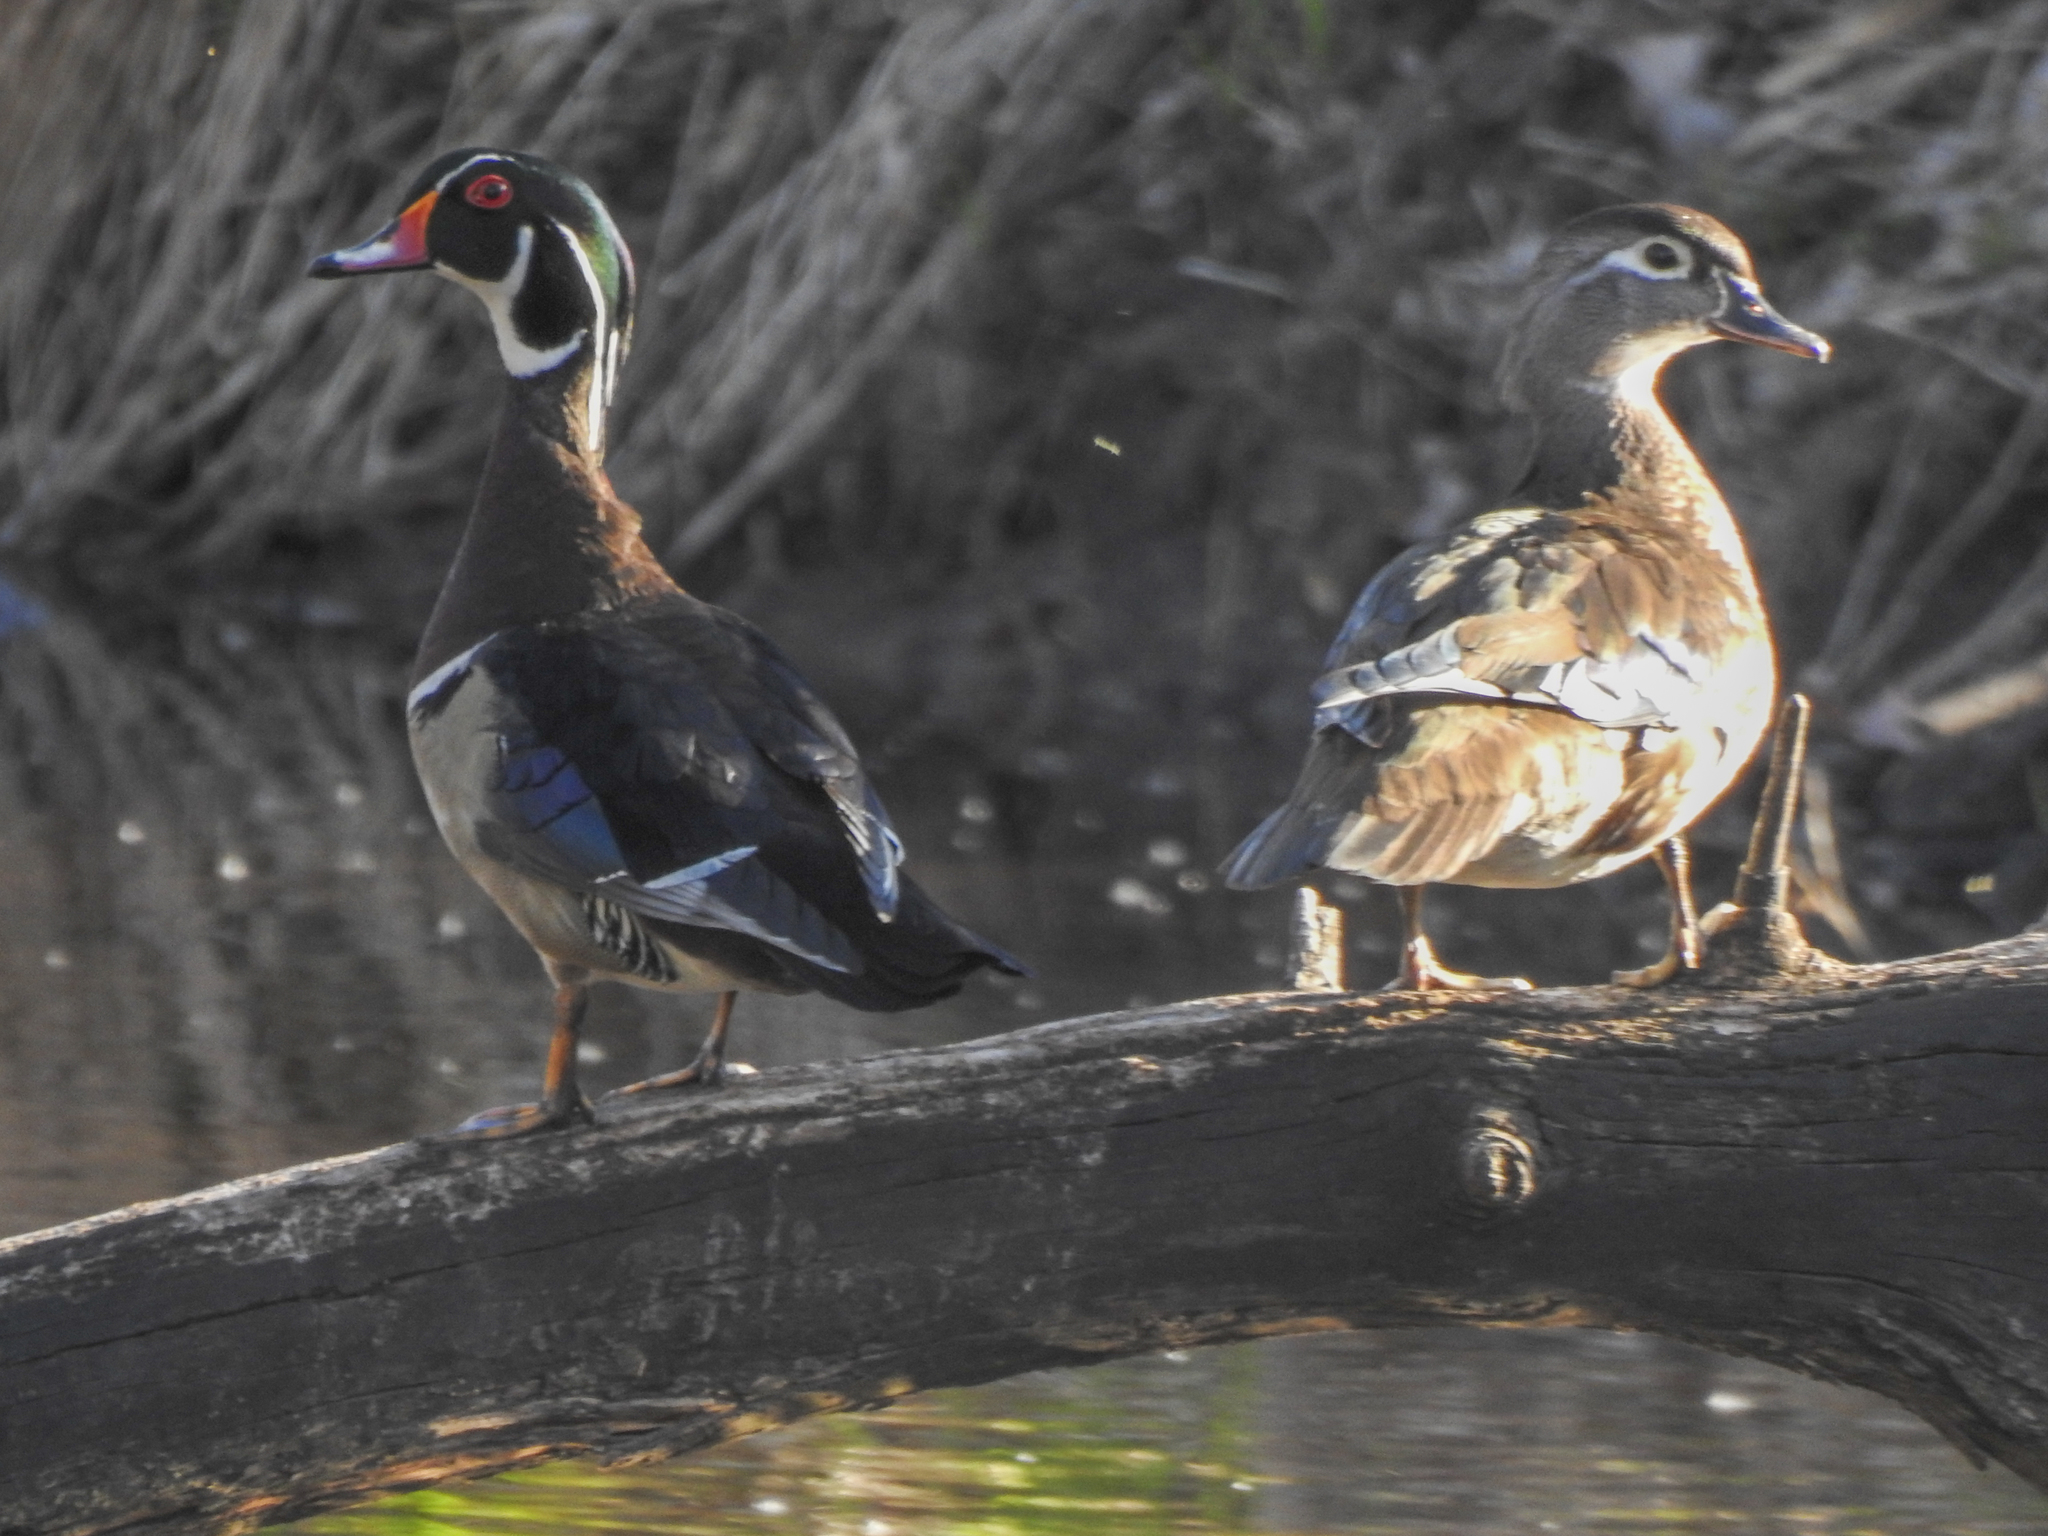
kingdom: Animalia
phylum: Chordata
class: Aves
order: Anseriformes
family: Anatidae
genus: Aix
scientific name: Aix sponsa
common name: Wood duck
